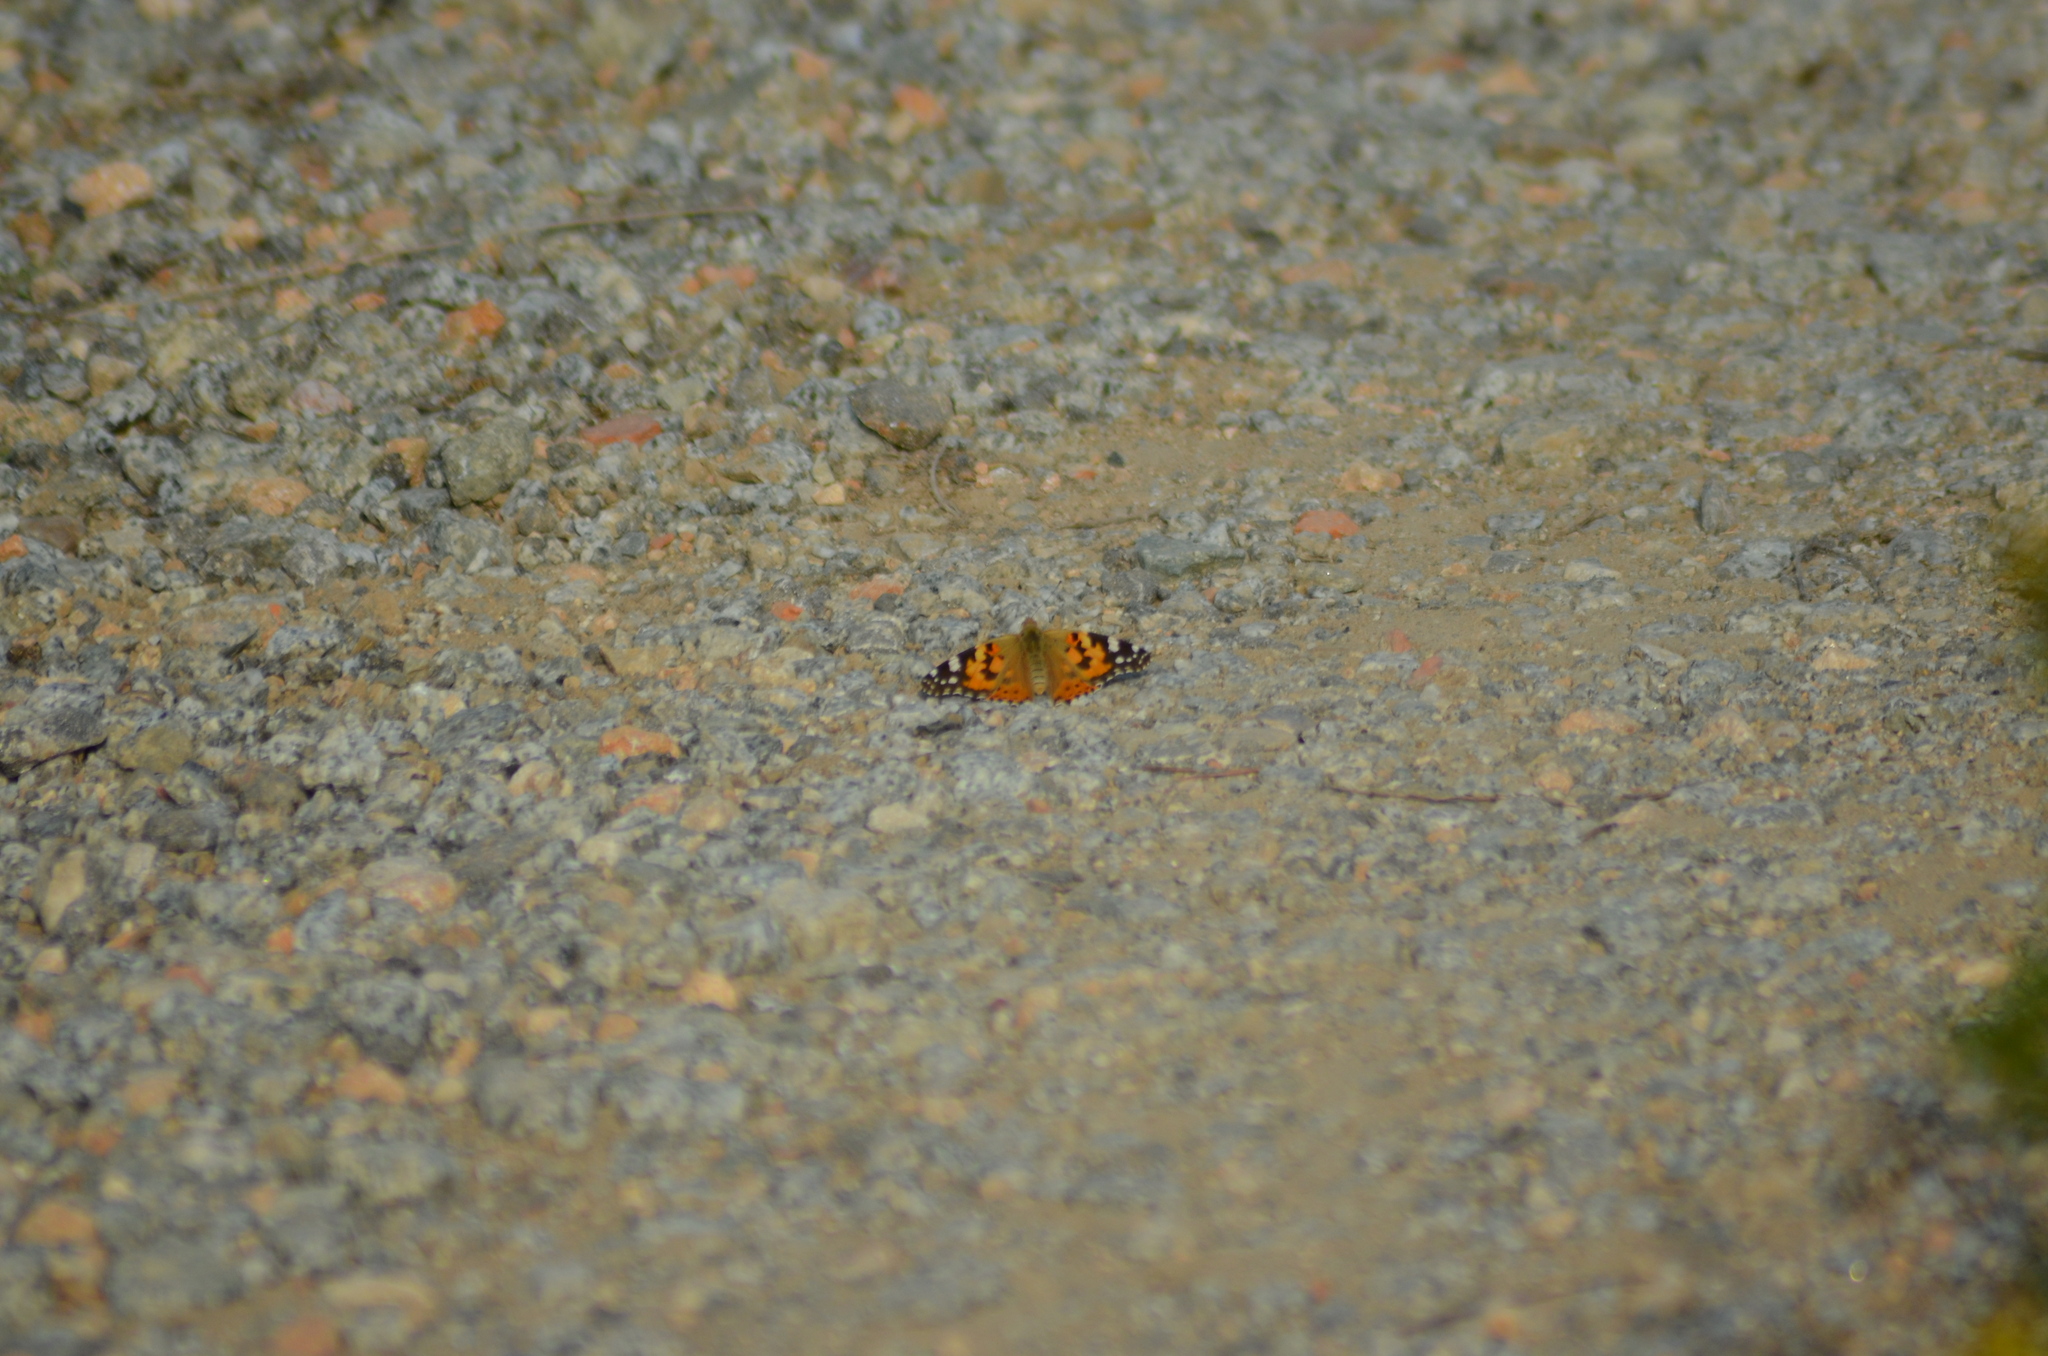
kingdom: Animalia
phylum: Arthropoda
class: Insecta
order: Lepidoptera
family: Nymphalidae
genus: Vanessa
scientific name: Vanessa cardui
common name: Painted lady
